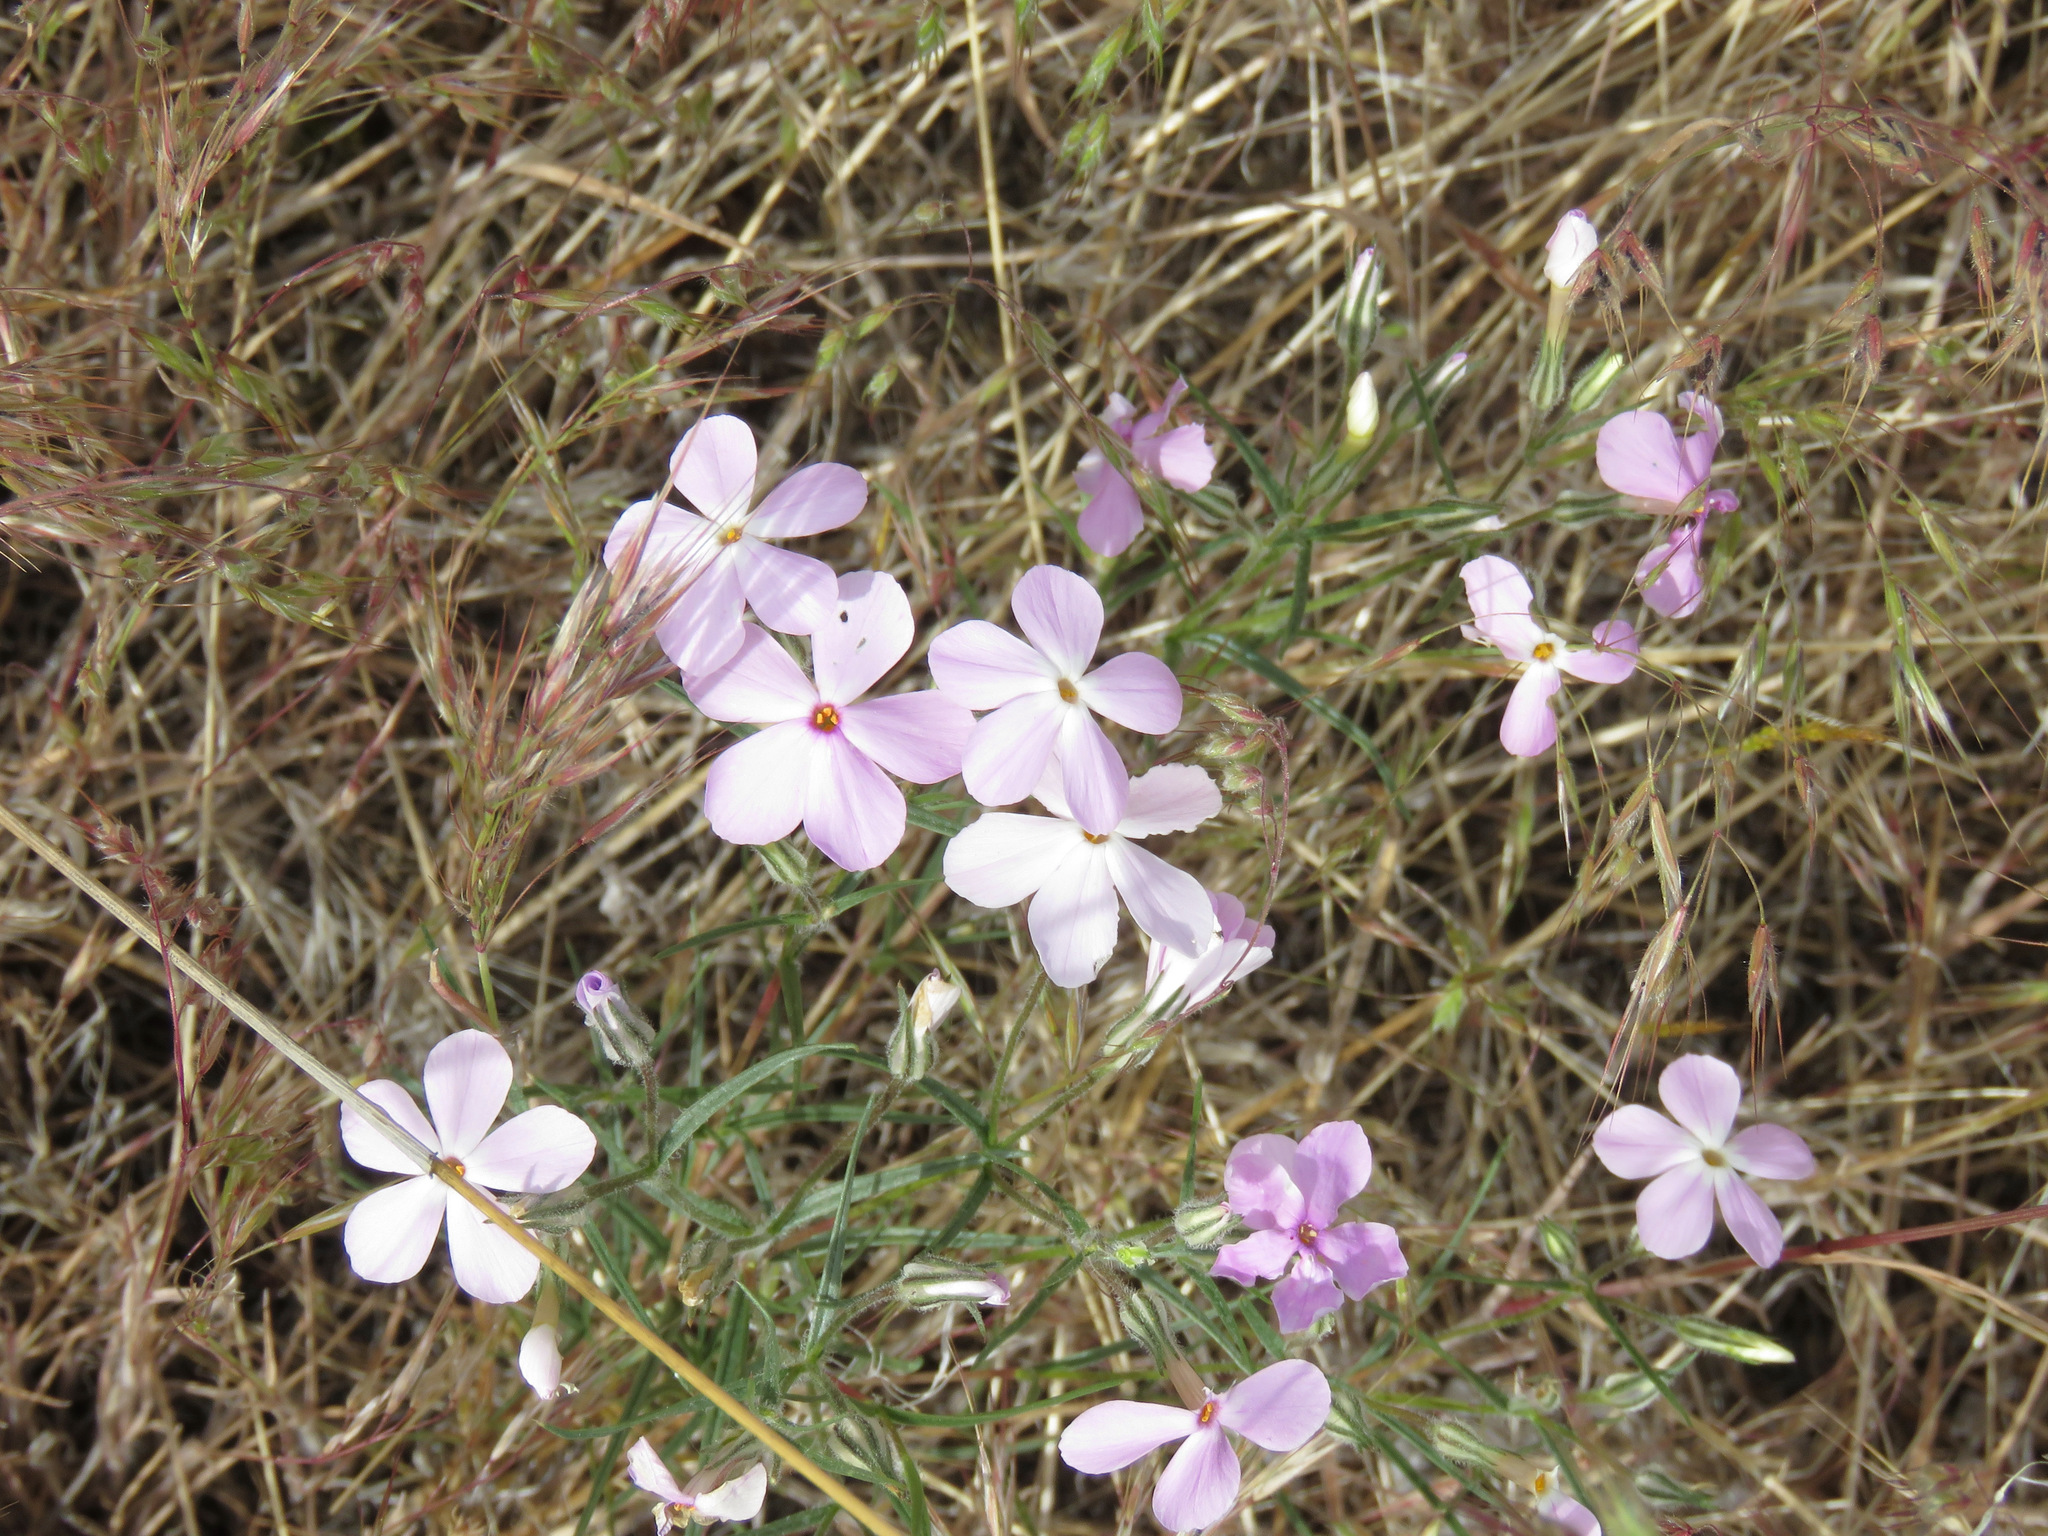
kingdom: Plantae
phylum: Tracheophyta
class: Magnoliopsida
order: Ericales
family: Polemoniaceae
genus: Phlox
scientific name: Phlox longifolia
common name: Longleaf phlox
